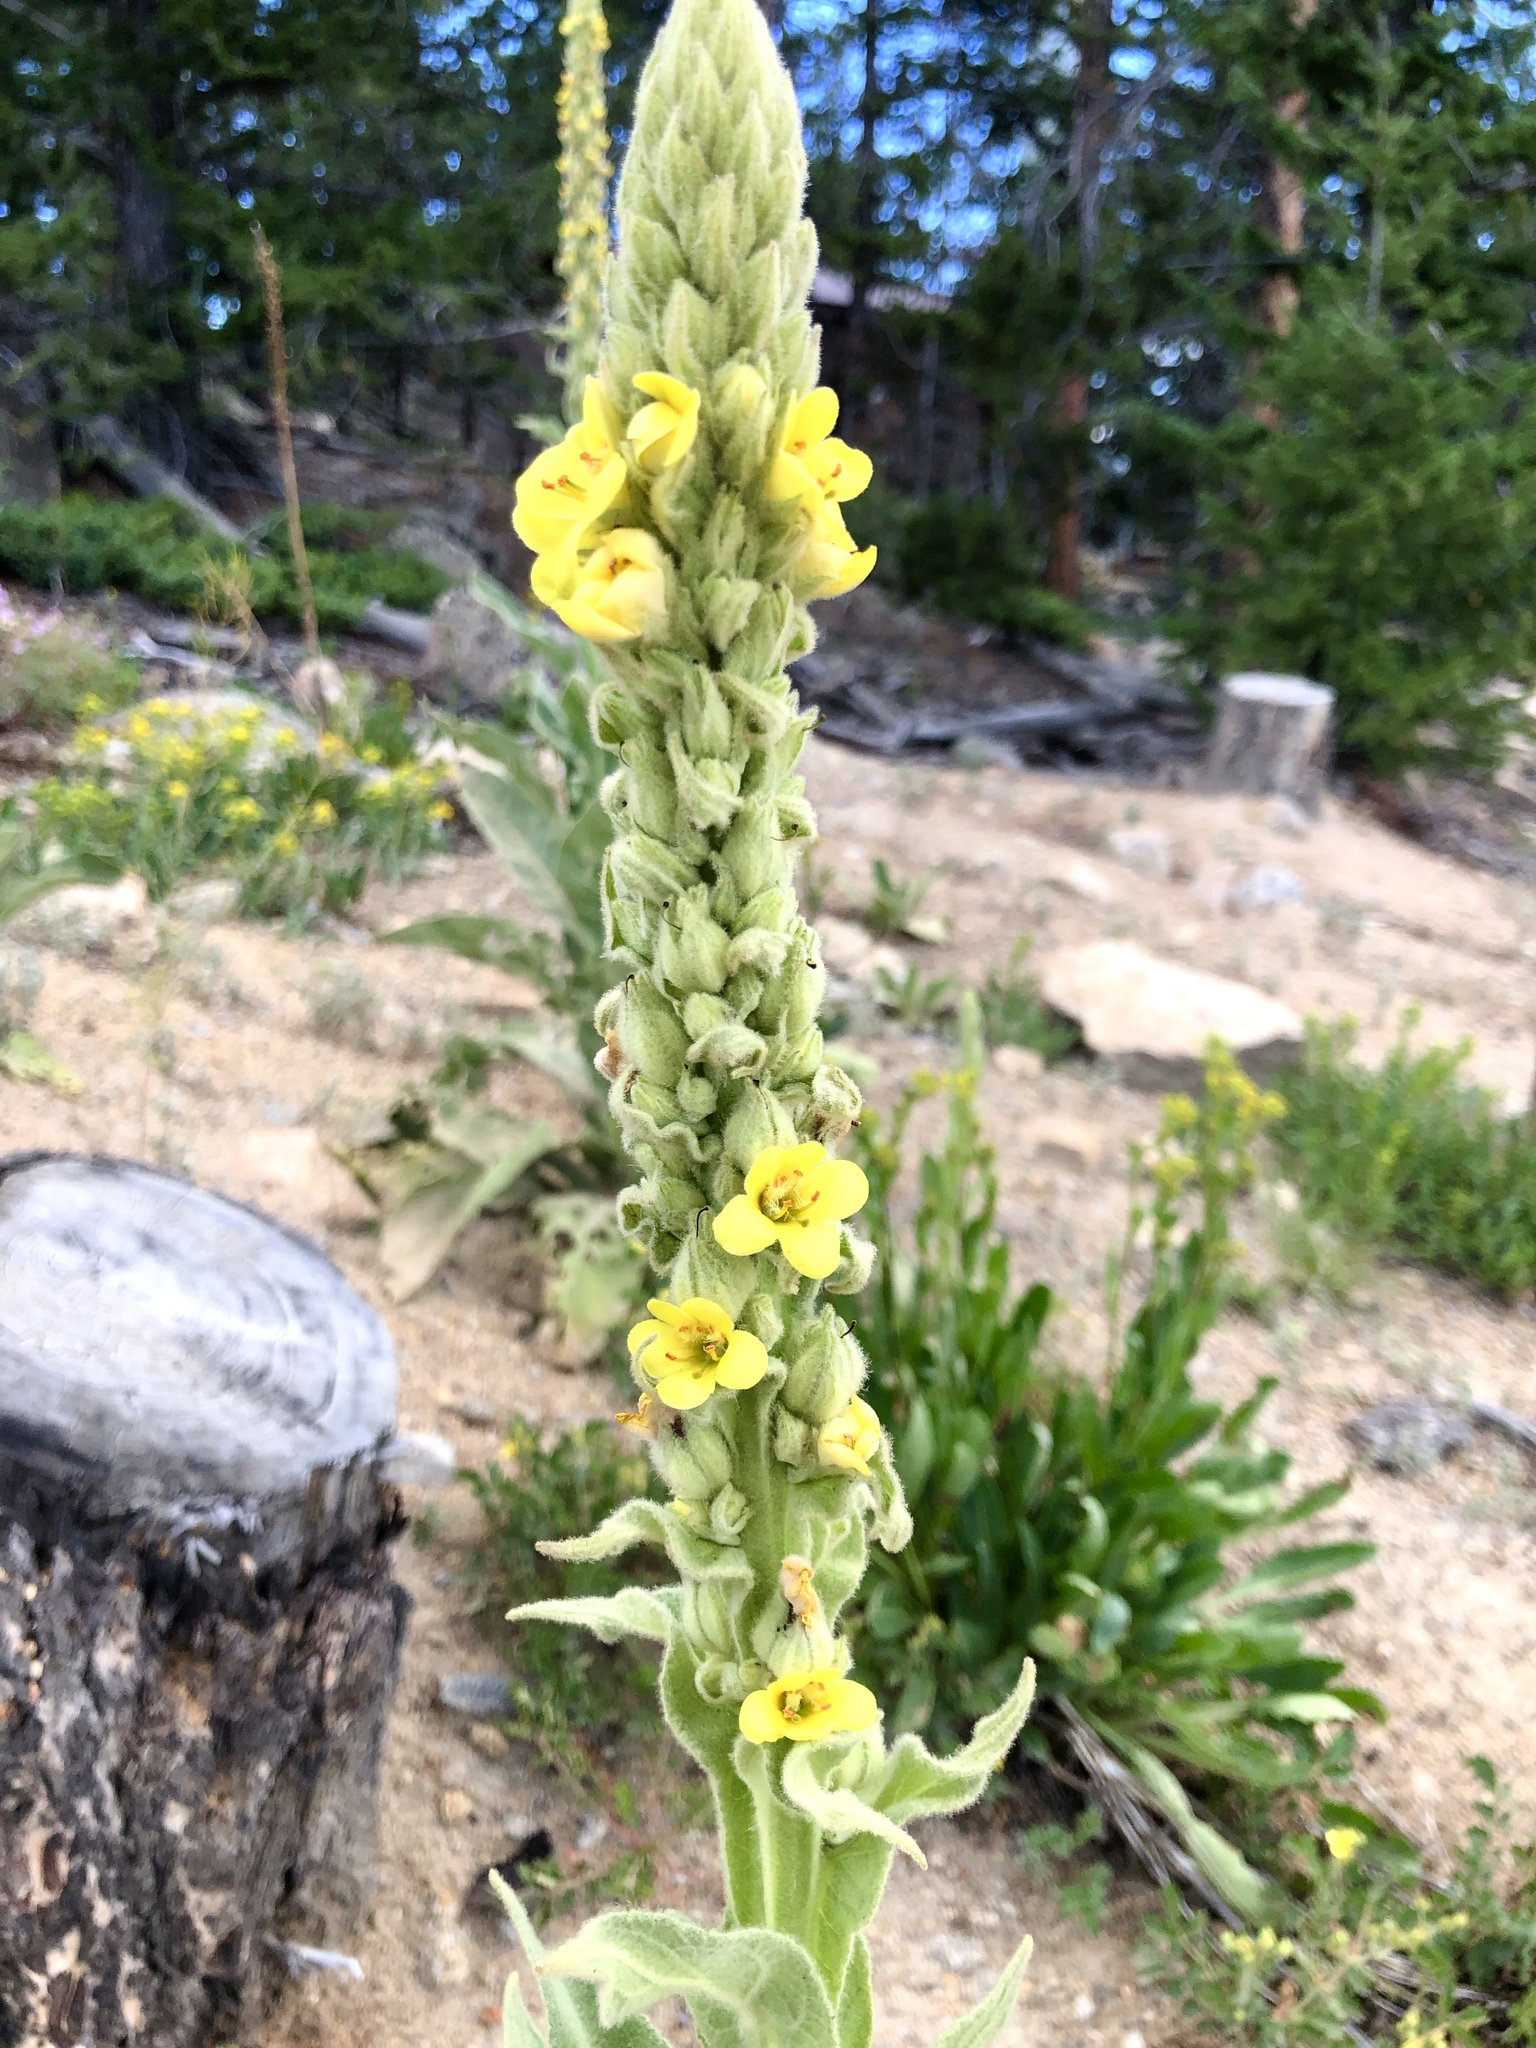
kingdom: Plantae
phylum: Tracheophyta
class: Magnoliopsida
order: Lamiales
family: Scrophulariaceae
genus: Verbascum
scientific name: Verbascum thapsus
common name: Common mullein
